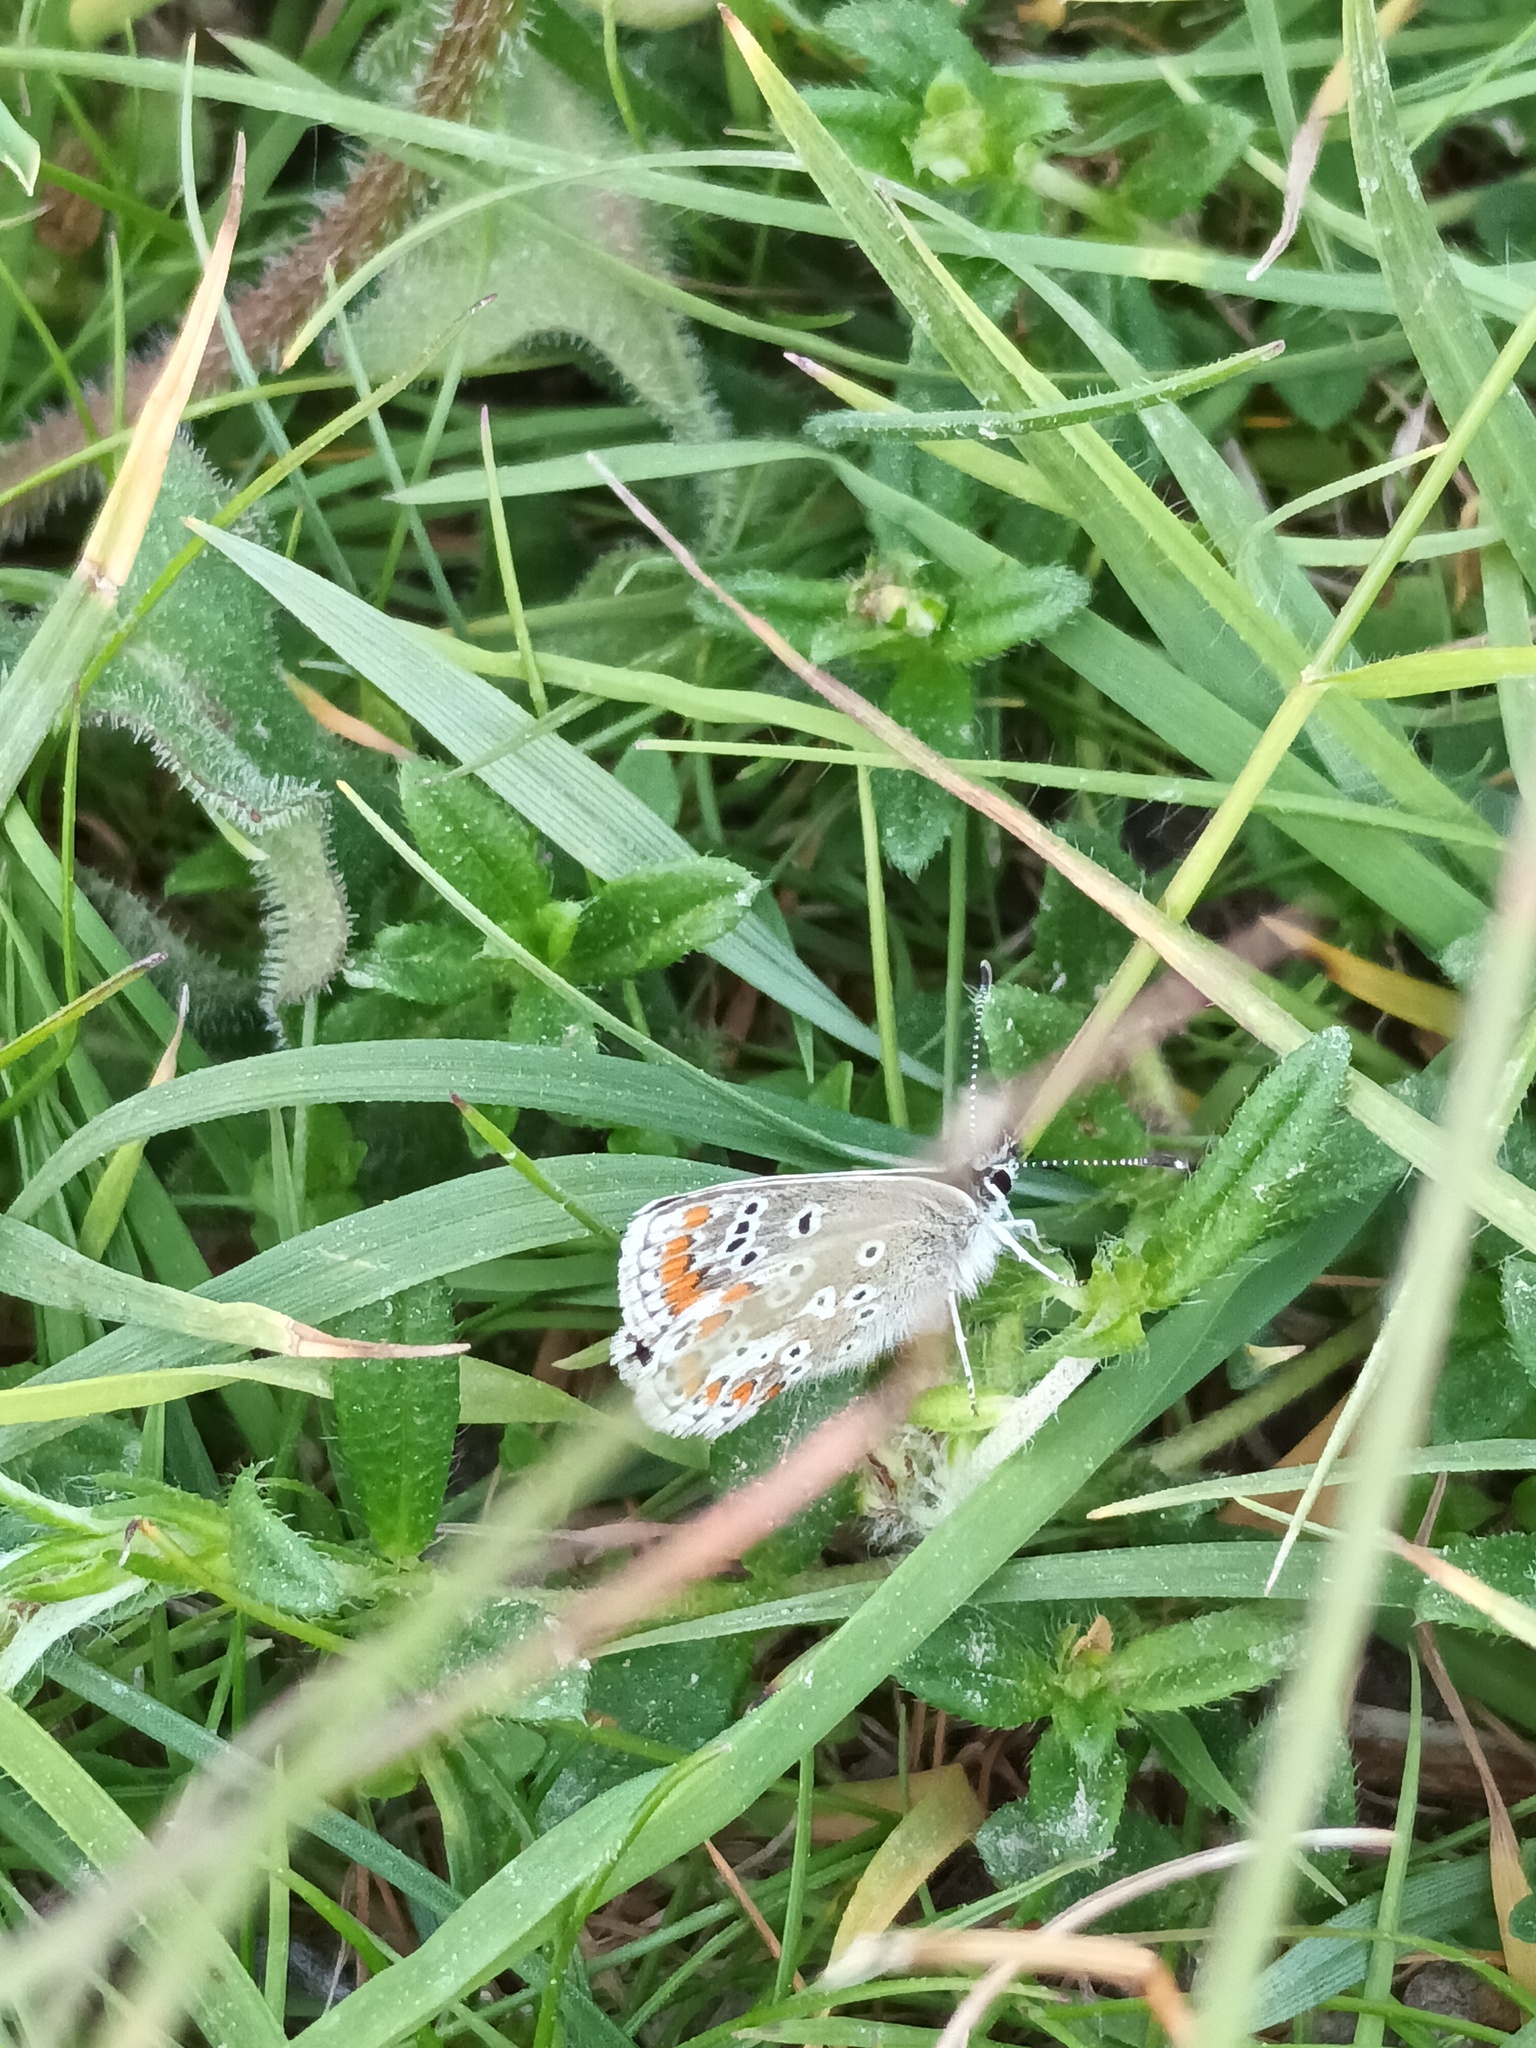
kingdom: Animalia
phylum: Arthropoda
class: Insecta
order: Lepidoptera
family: Lycaenidae
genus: Aricia
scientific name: Aricia agestis
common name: Brown argus
